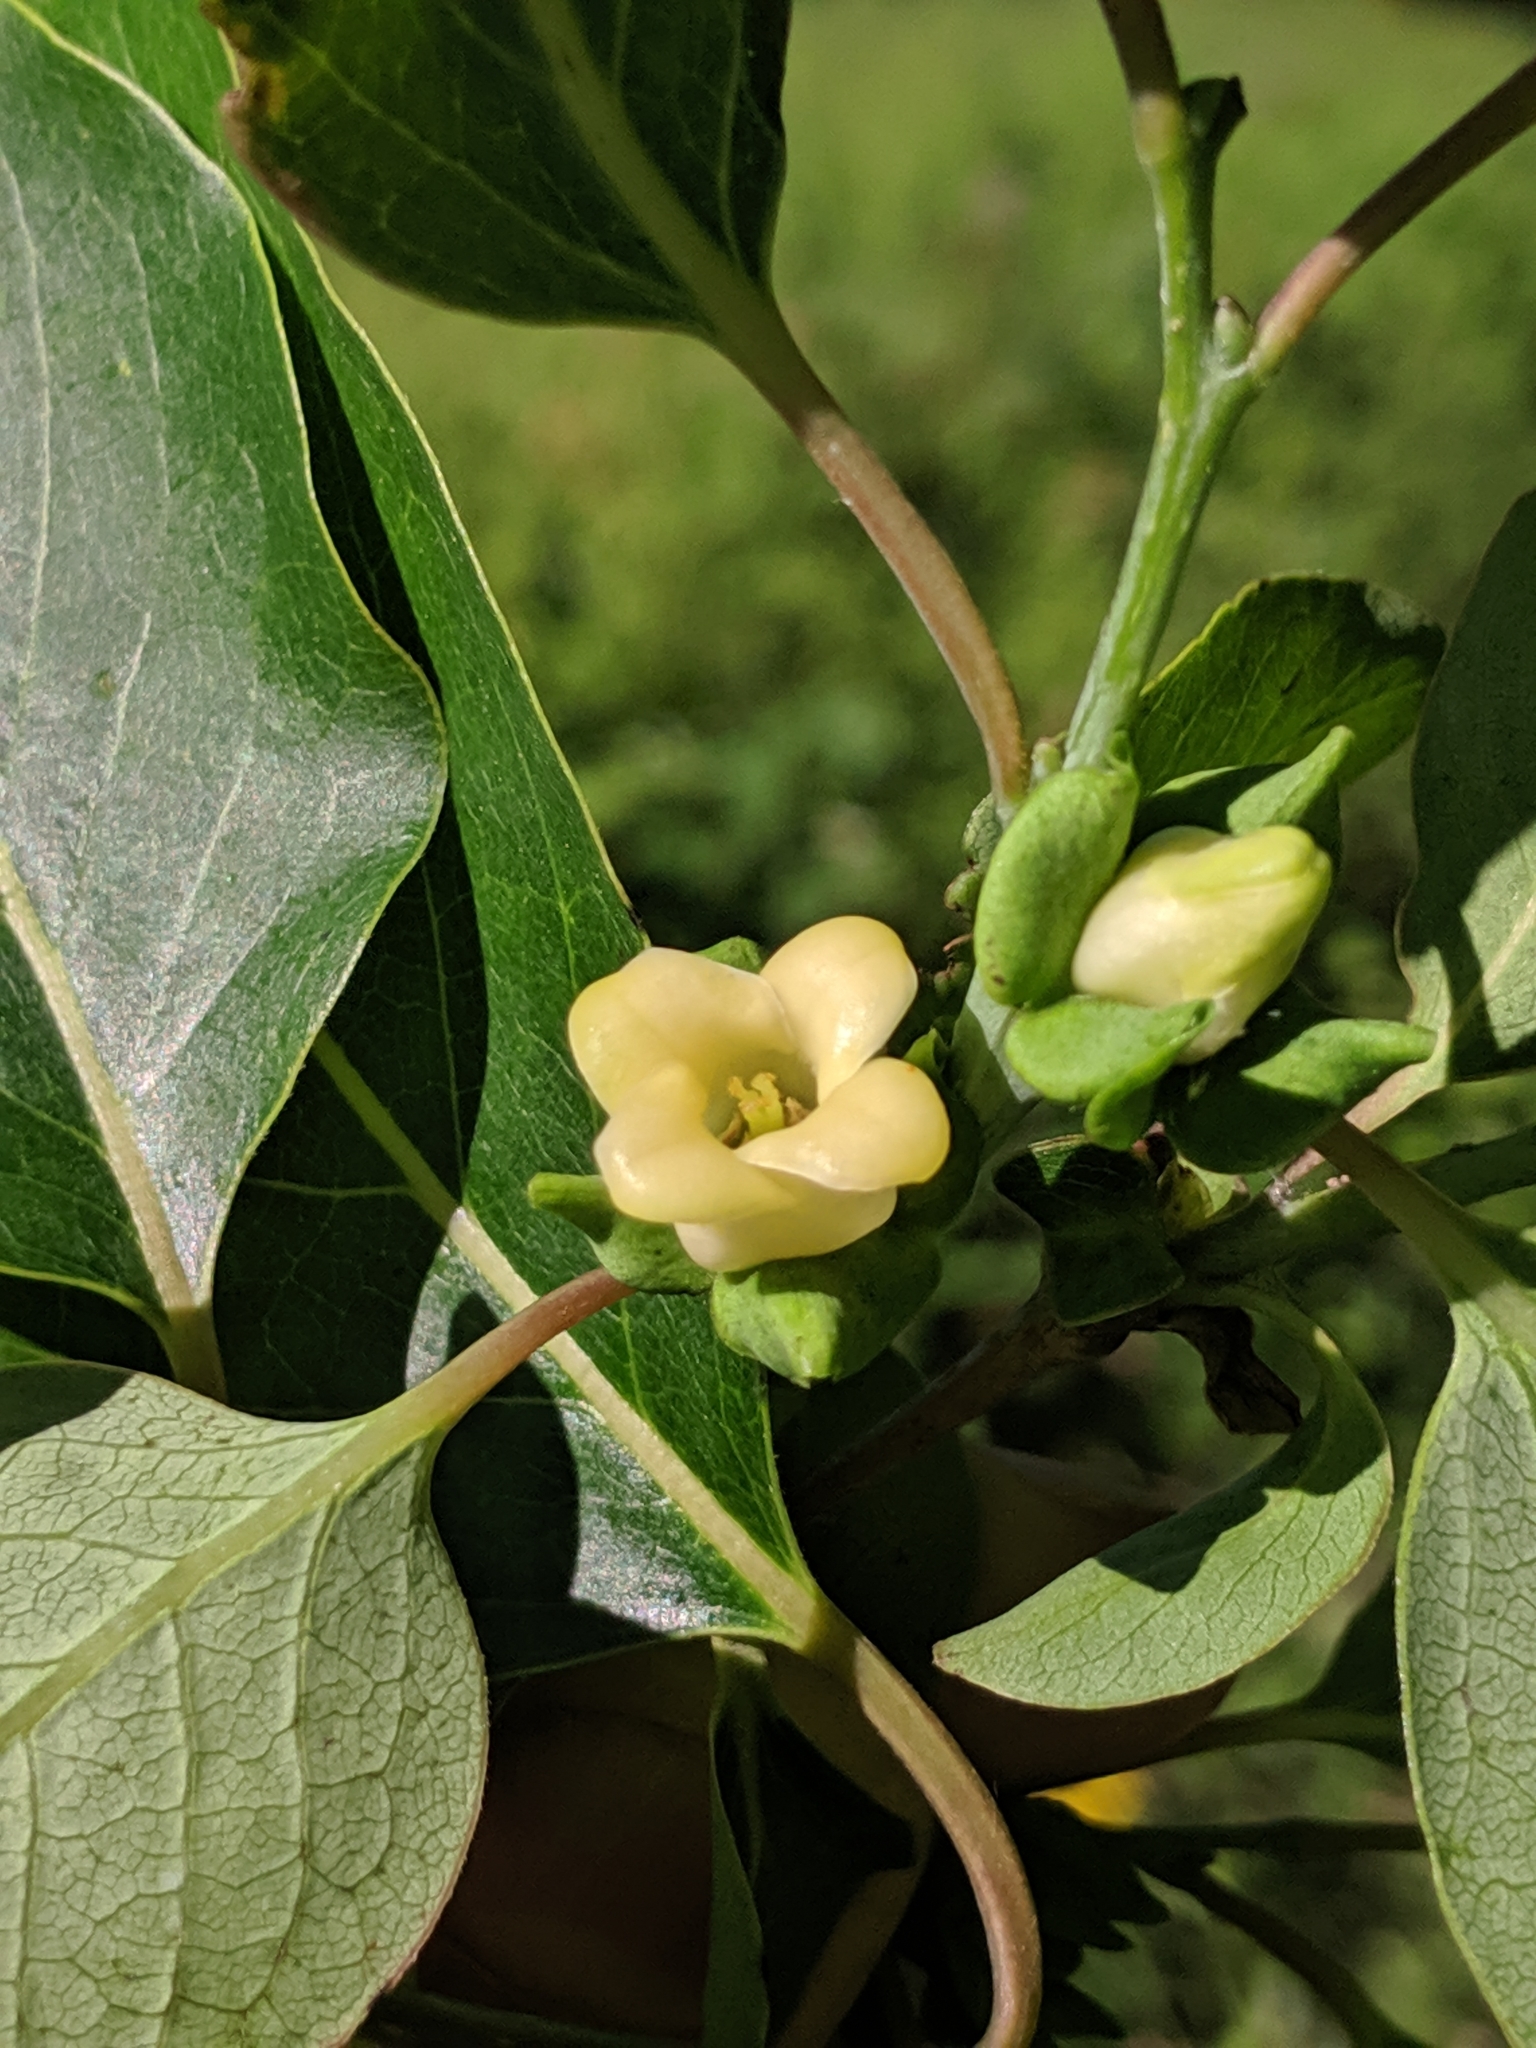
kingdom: Plantae
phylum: Tracheophyta
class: Magnoliopsida
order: Ericales
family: Ebenaceae
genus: Diospyros
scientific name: Diospyros virginiana
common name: Persimmon
